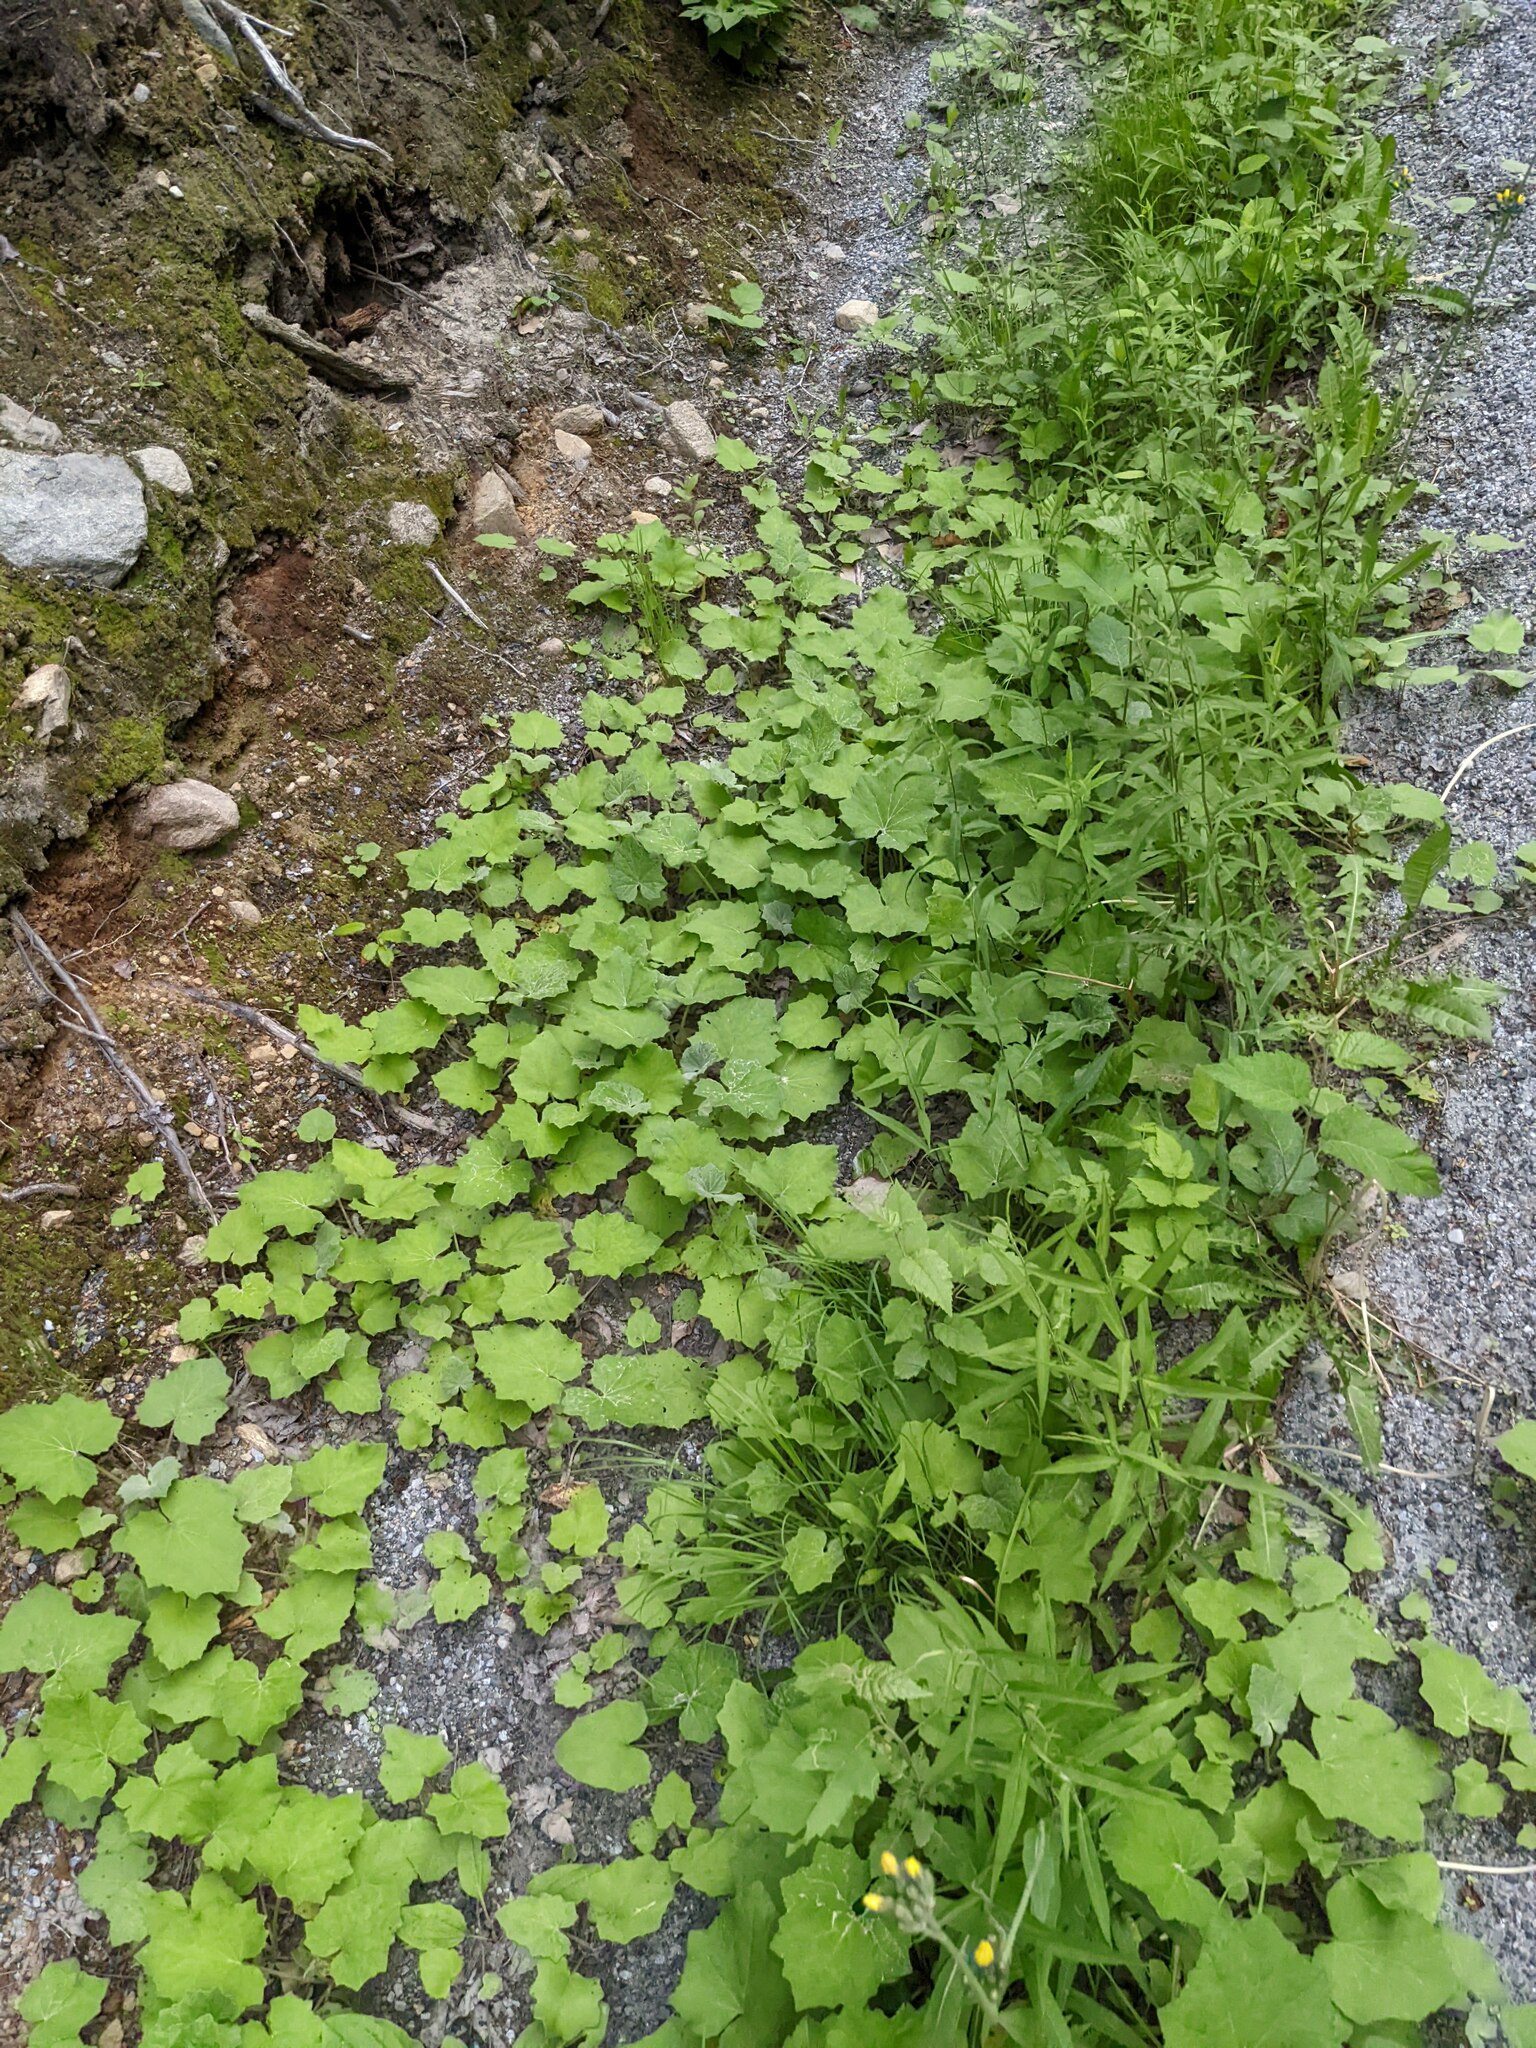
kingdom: Plantae
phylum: Tracheophyta
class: Magnoliopsida
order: Asterales
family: Asteraceae
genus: Tussilago
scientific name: Tussilago farfara
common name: Coltsfoot
